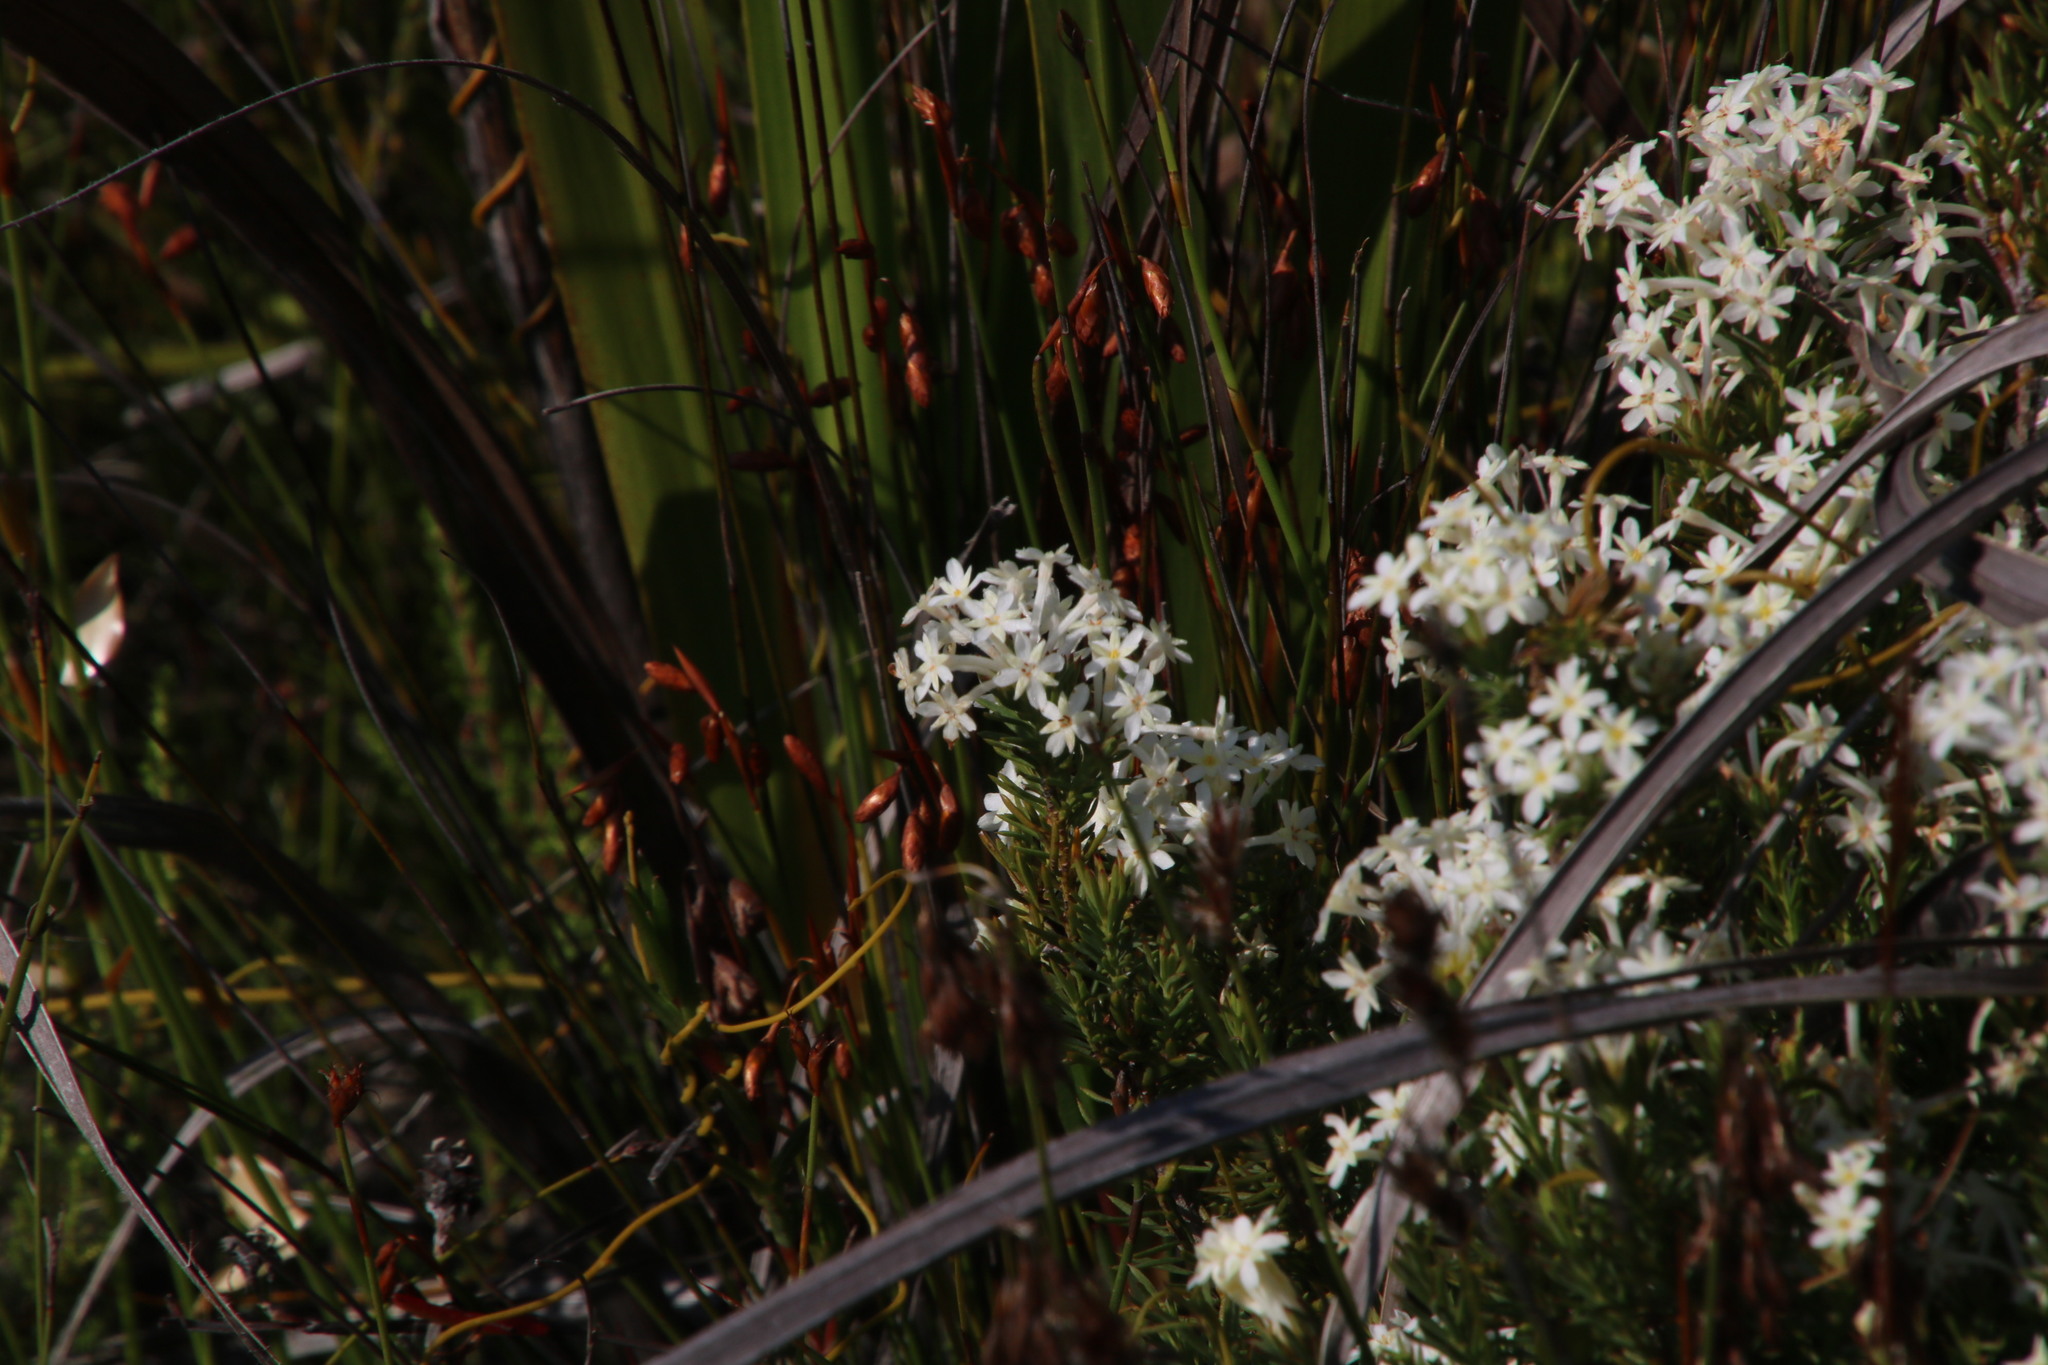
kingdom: Plantae
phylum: Tracheophyta
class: Magnoliopsida
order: Malvales
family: Thymelaeaceae
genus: Gnidia
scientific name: Gnidia pinifolia
